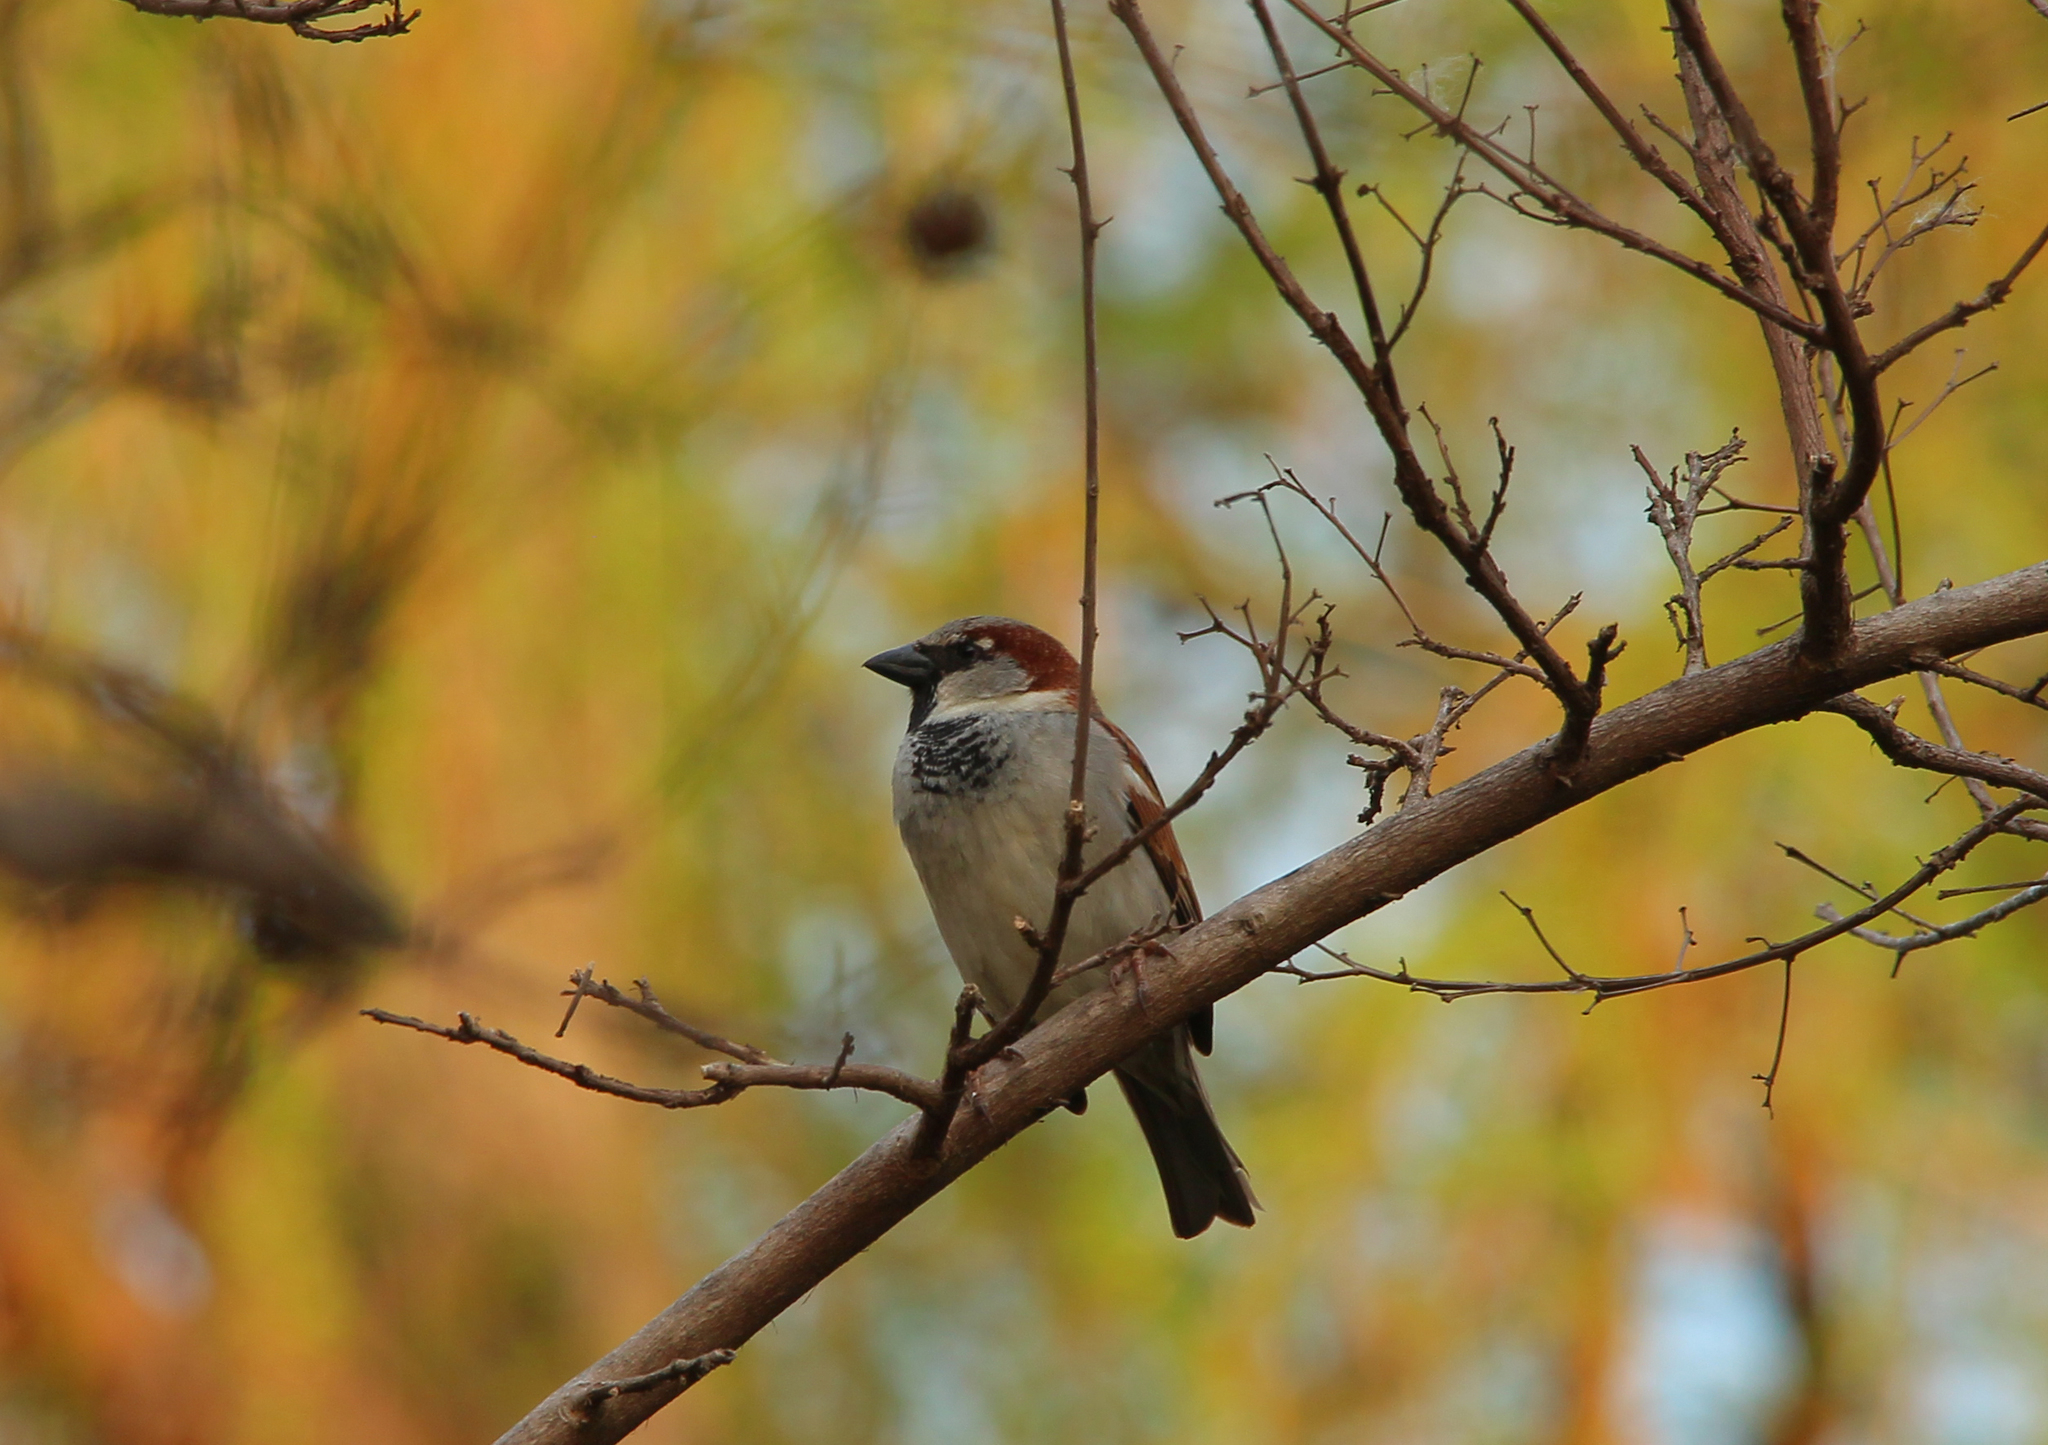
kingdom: Animalia
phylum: Chordata
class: Aves
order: Passeriformes
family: Passeridae
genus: Passer
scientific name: Passer domesticus
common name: House sparrow
